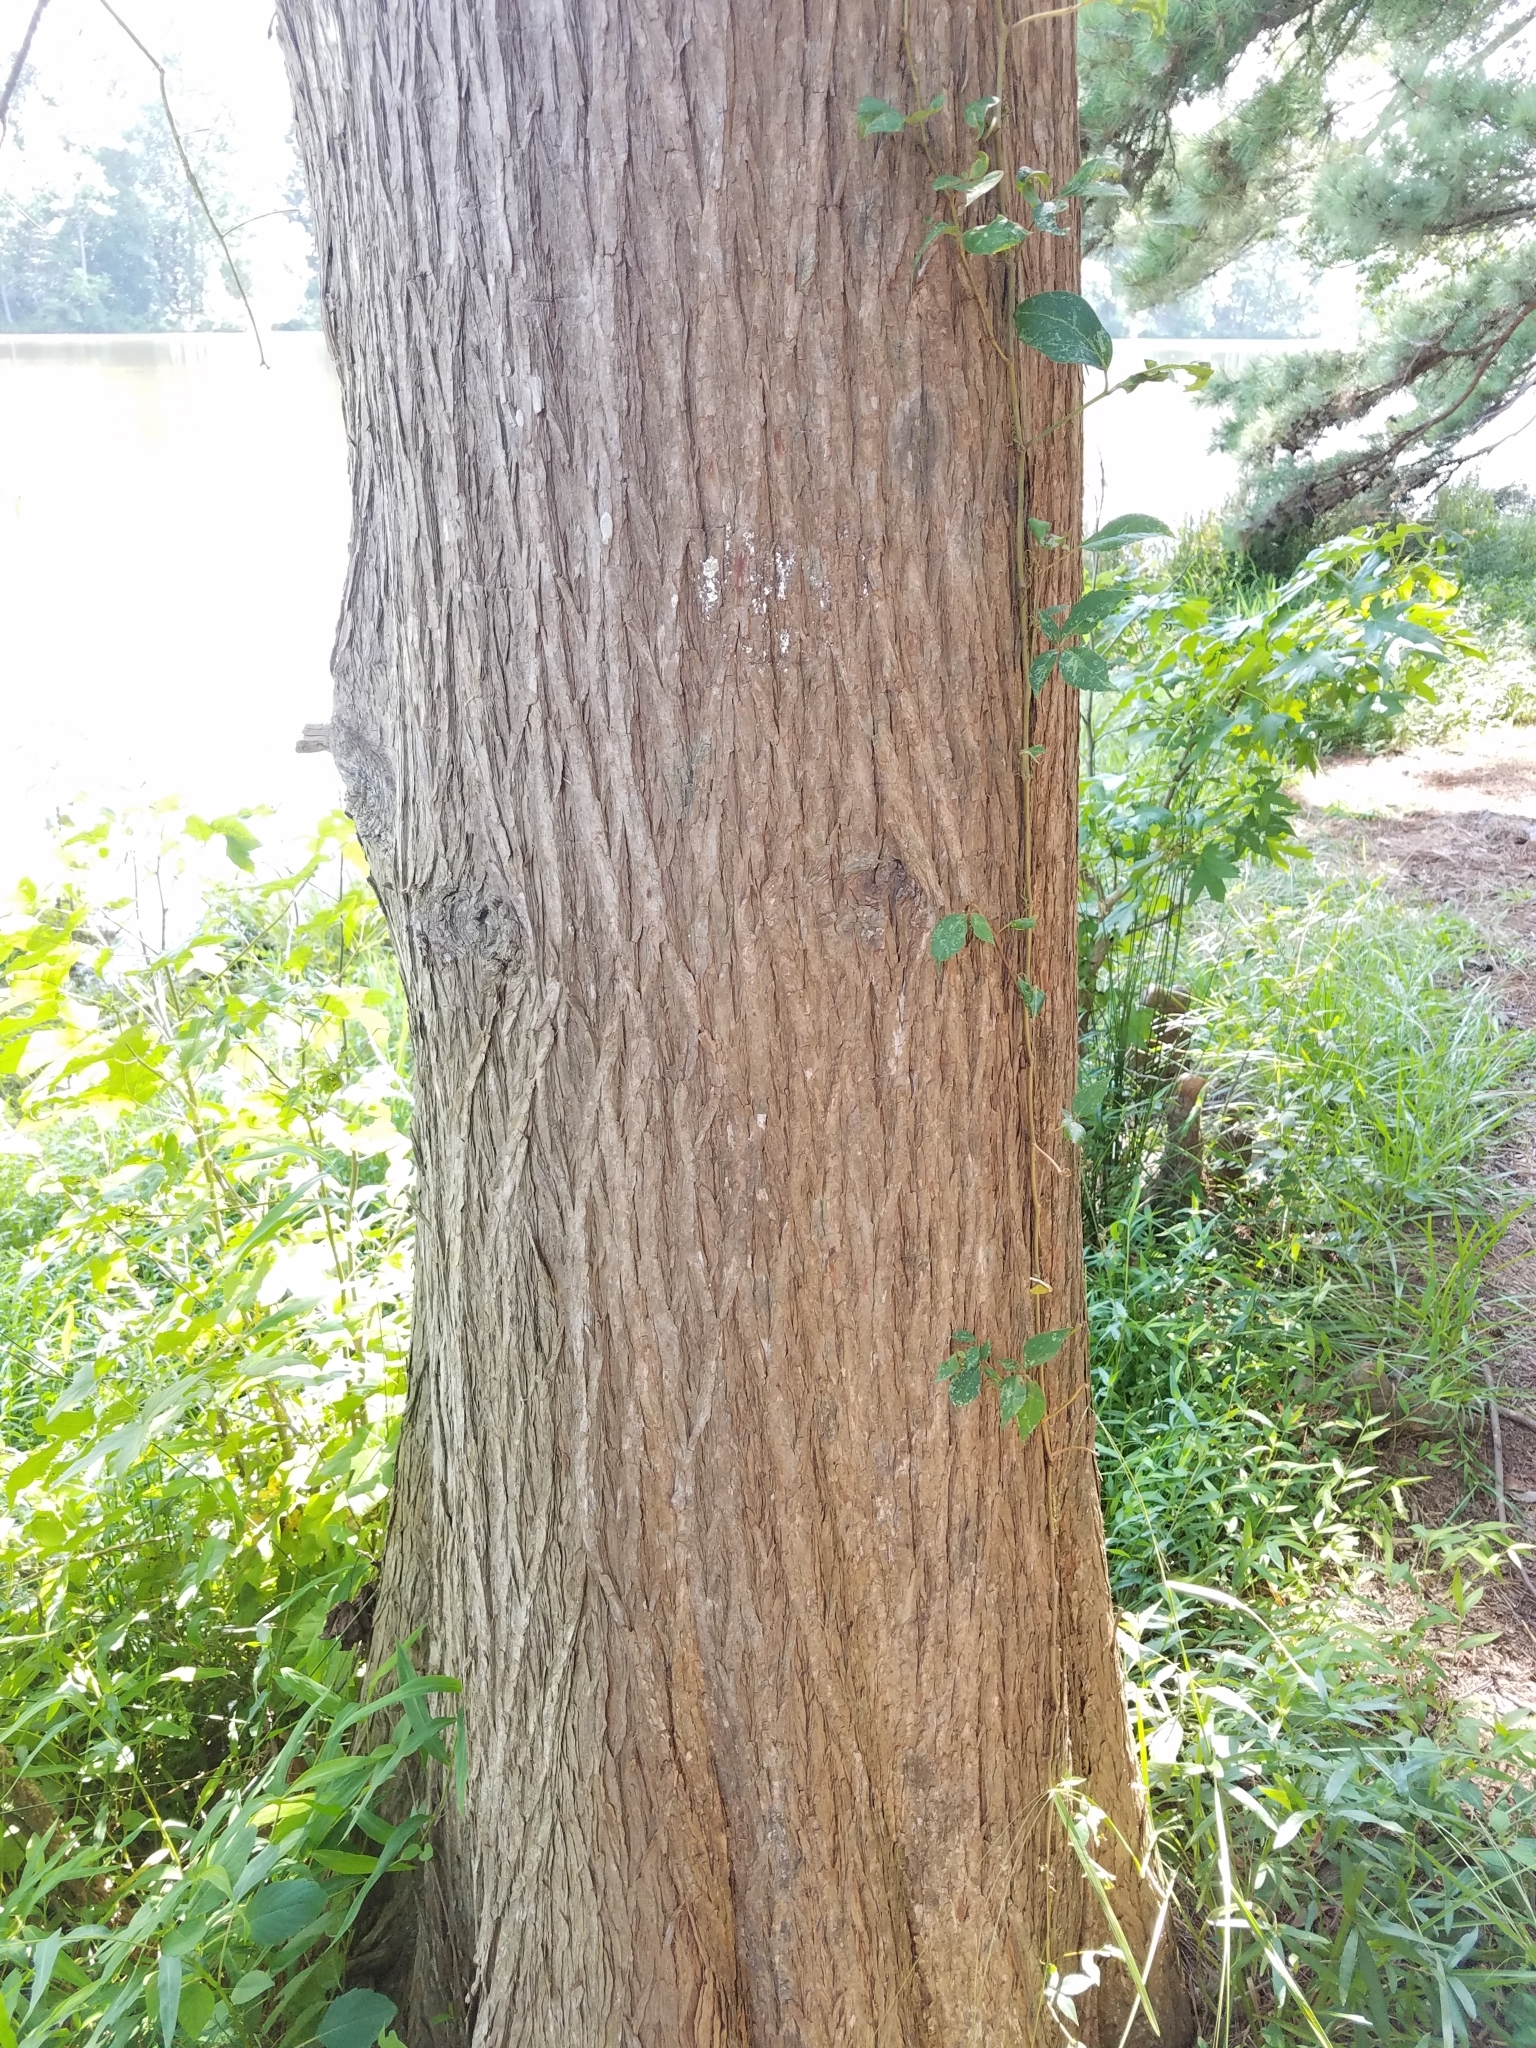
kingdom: Plantae
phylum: Tracheophyta
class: Pinopsida
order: Pinales
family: Cupressaceae
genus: Taxodium
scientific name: Taxodium distichum
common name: Bald cypress
